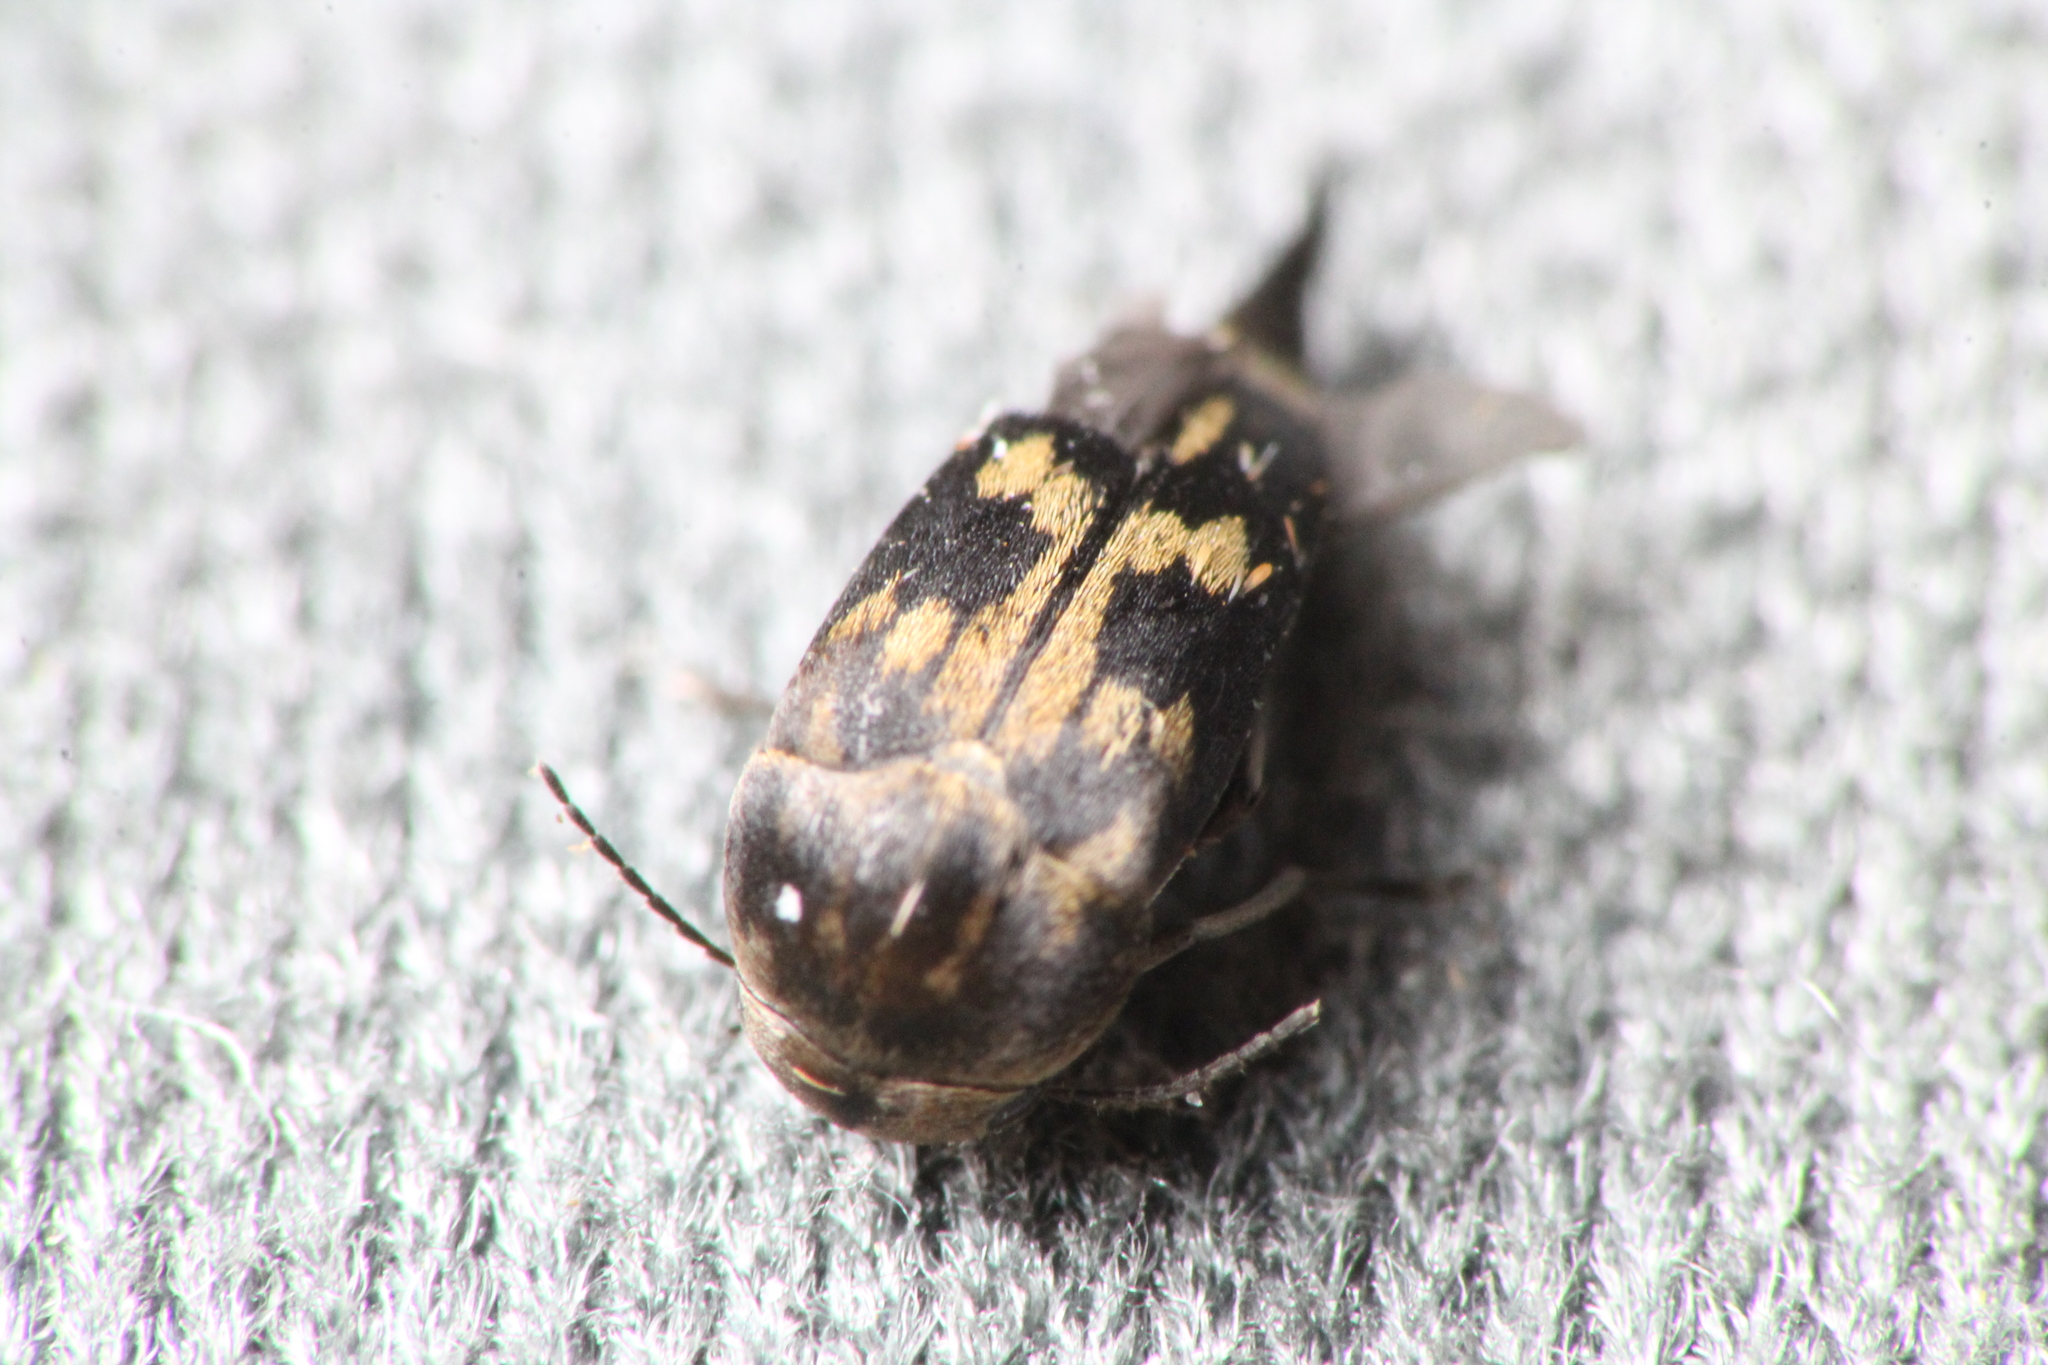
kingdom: Animalia
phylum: Arthropoda
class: Insecta
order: Coleoptera
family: Mordellidae
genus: Zeamordella
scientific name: Zeamordella monacha
